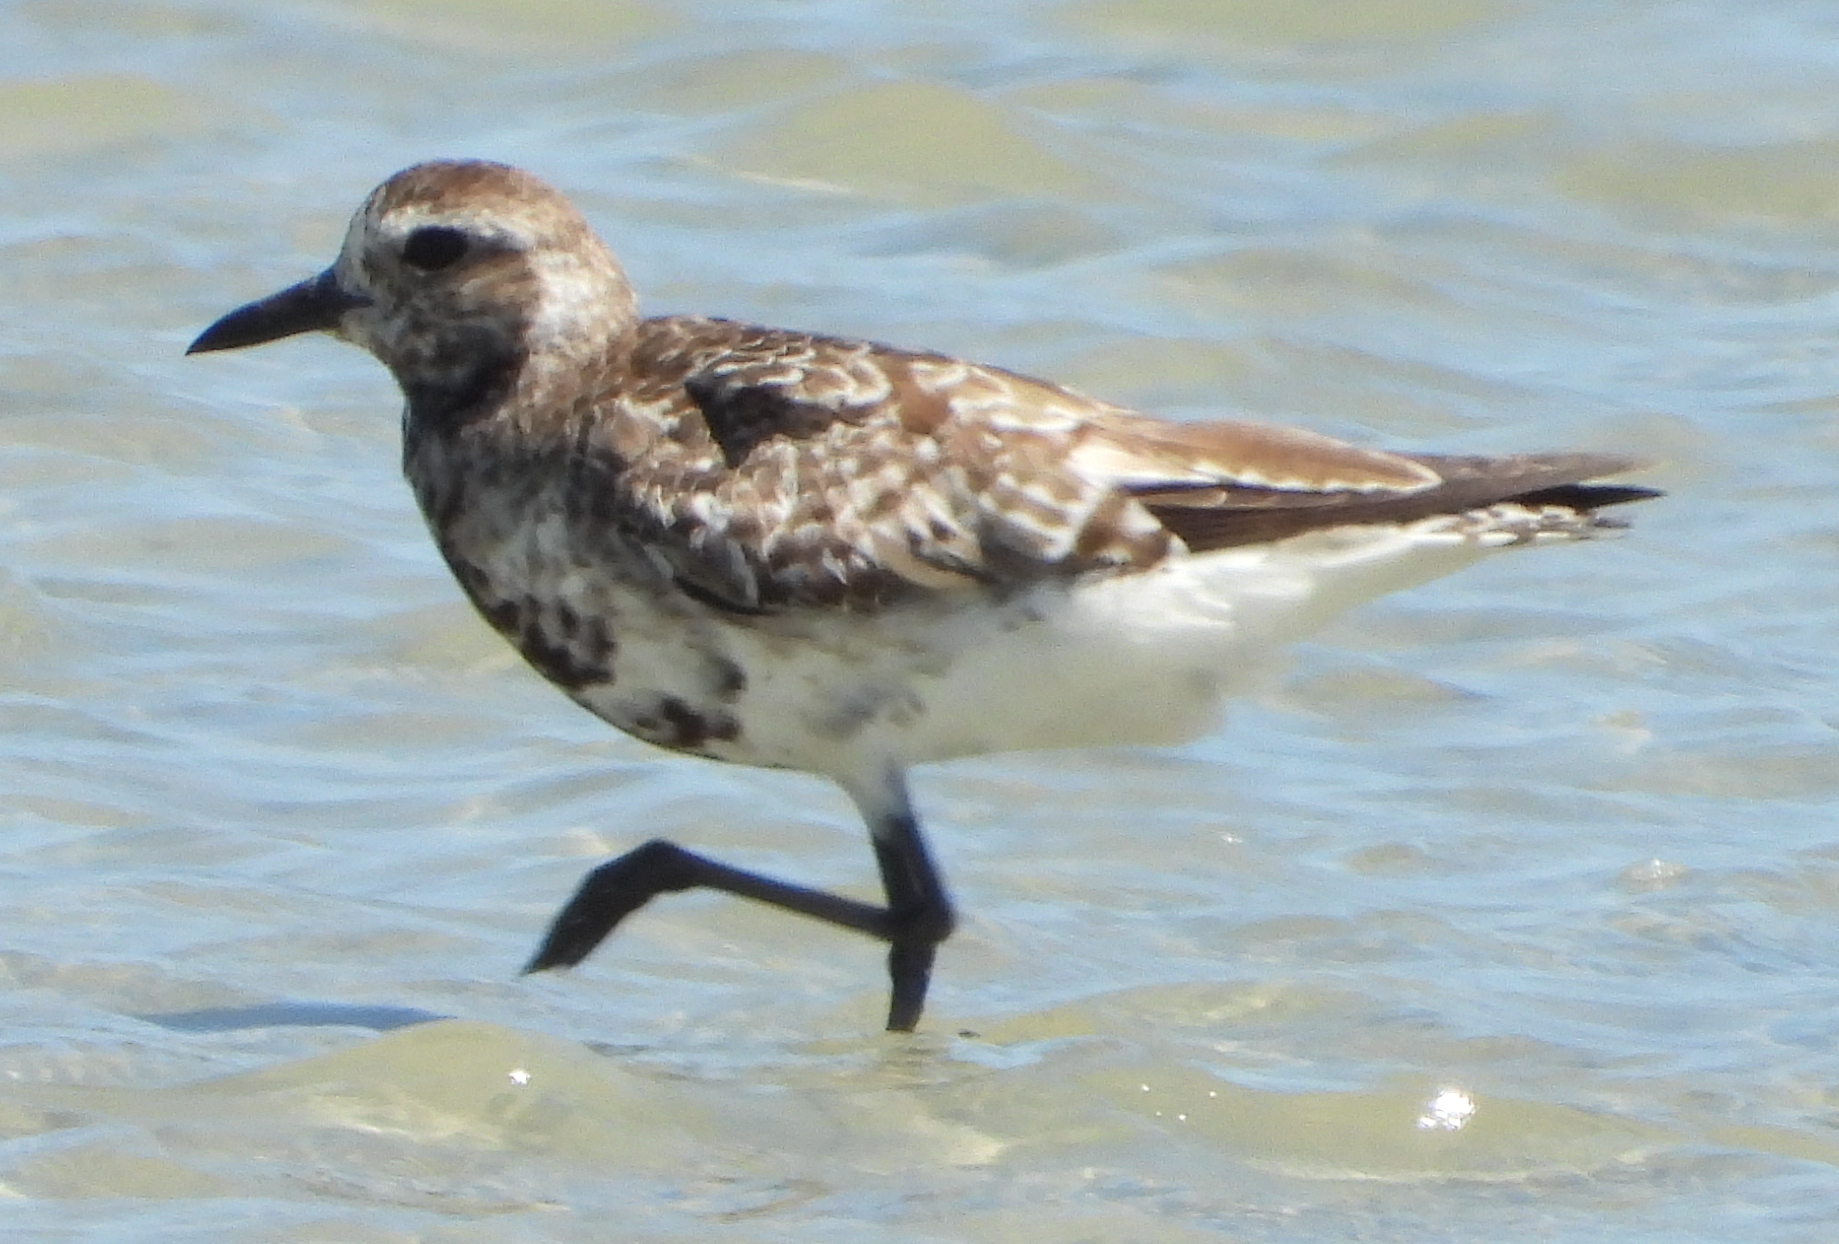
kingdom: Animalia
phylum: Chordata
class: Aves
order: Charadriiformes
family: Charadriidae
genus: Pluvialis
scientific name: Pluvialis squatarola
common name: Grey plover
